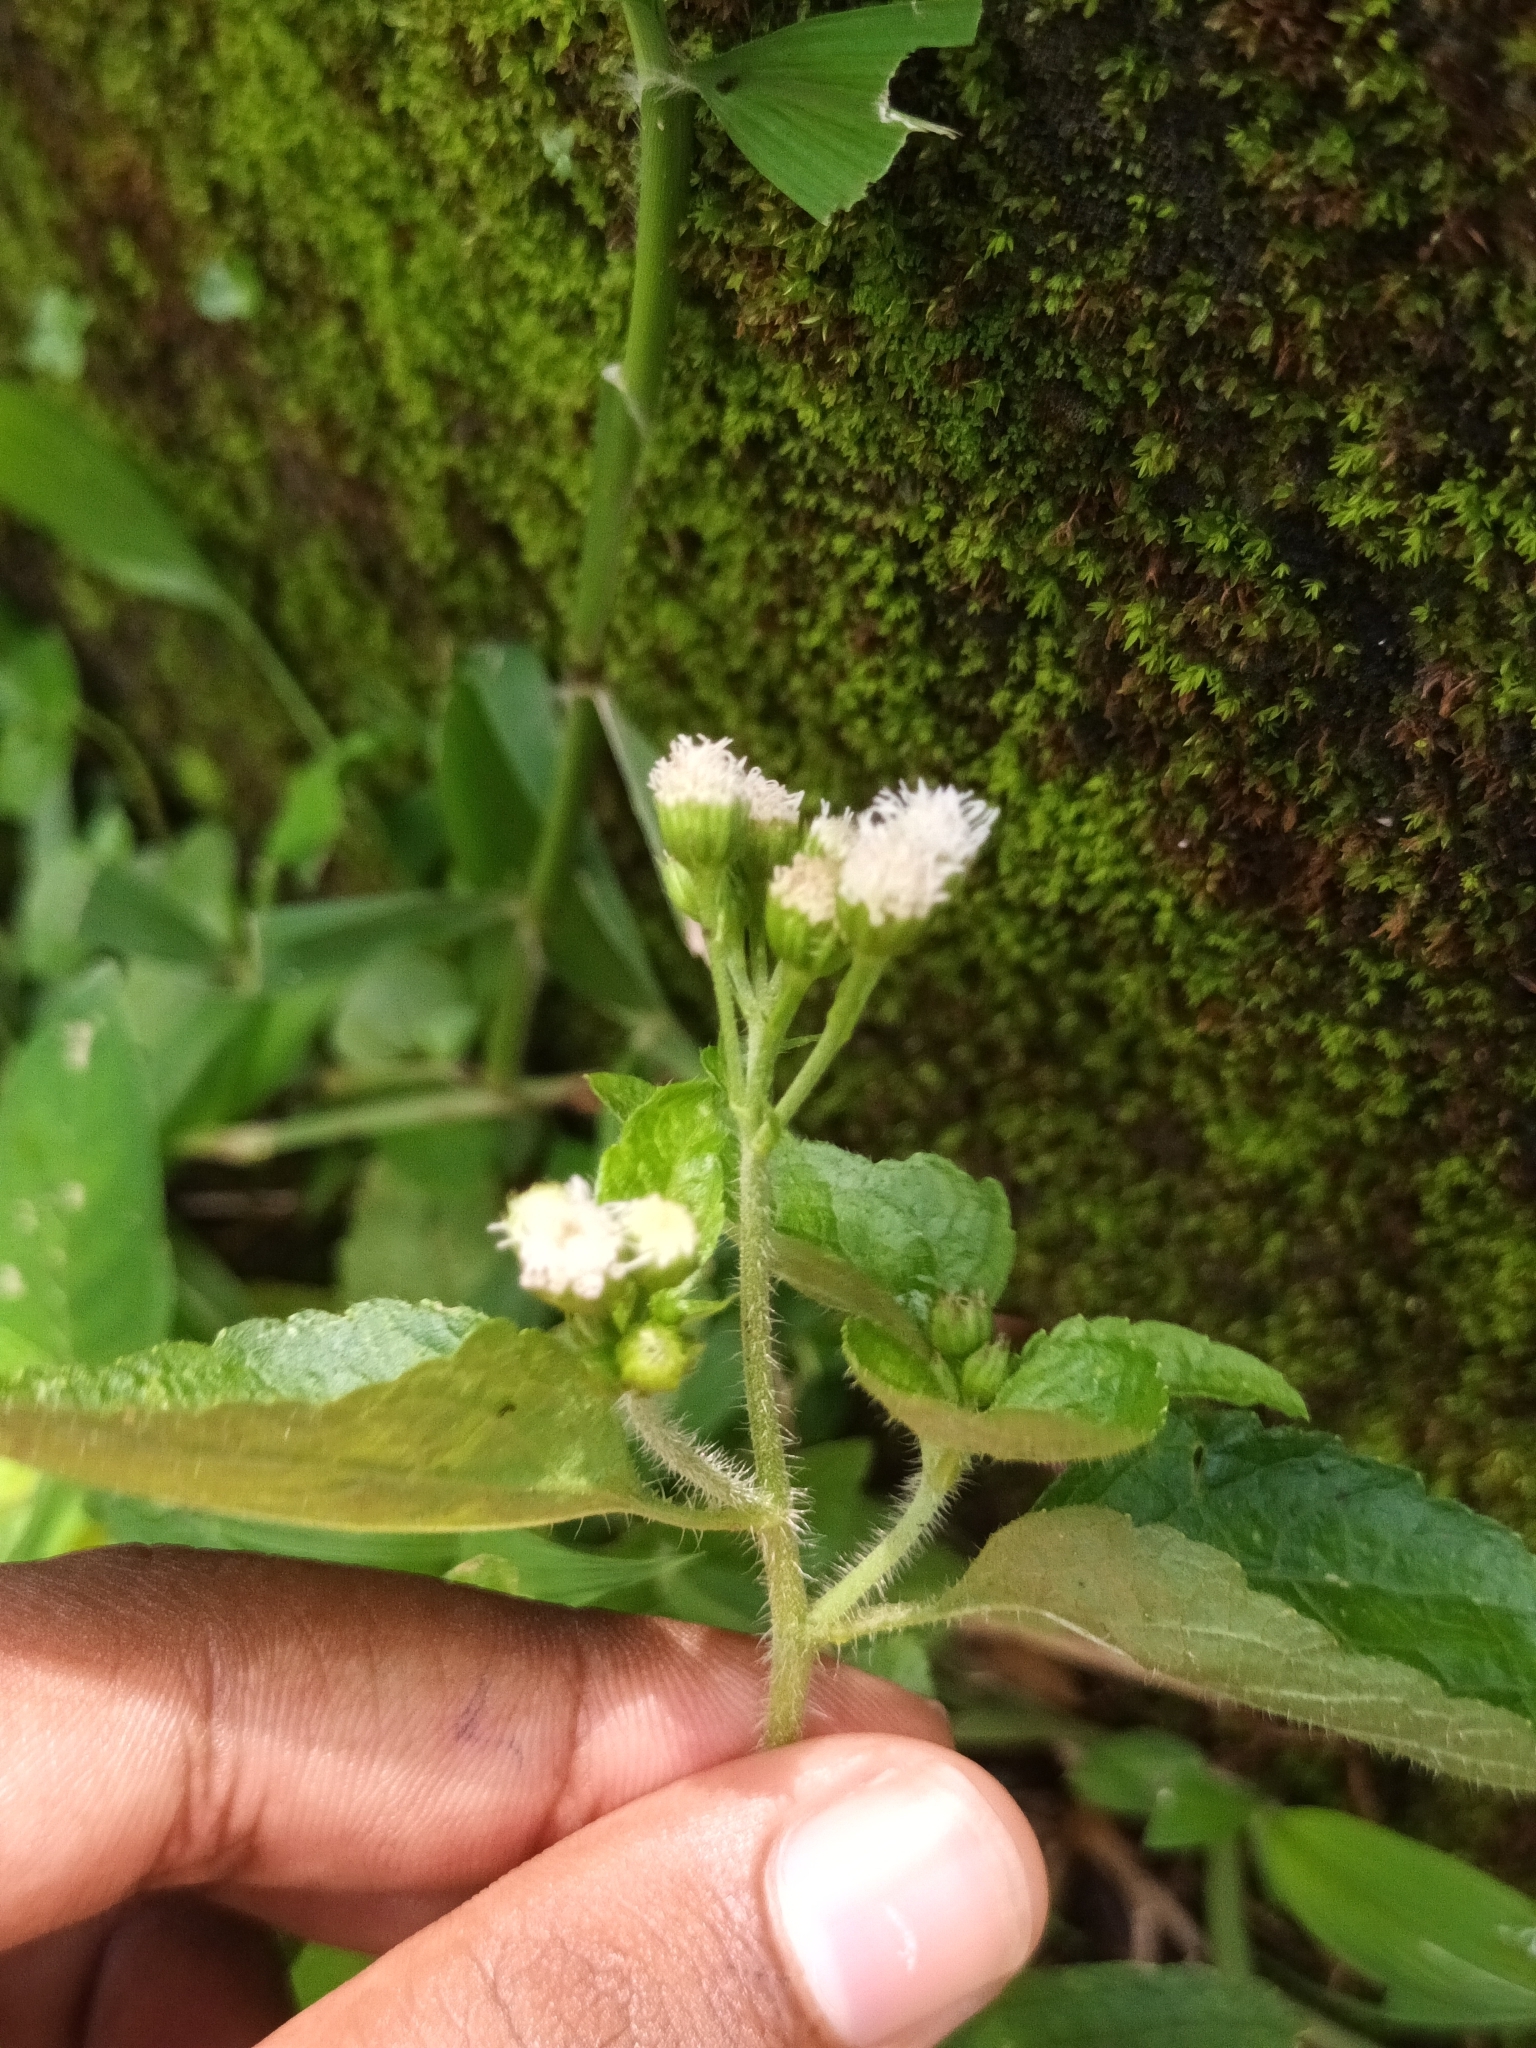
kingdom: Plantae
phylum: Tracheophyta
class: Magnoliopsida
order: Asterales
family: Asteraceae
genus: Ageratum
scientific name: Ageratum conyzoides
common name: Tropical whiteweed
